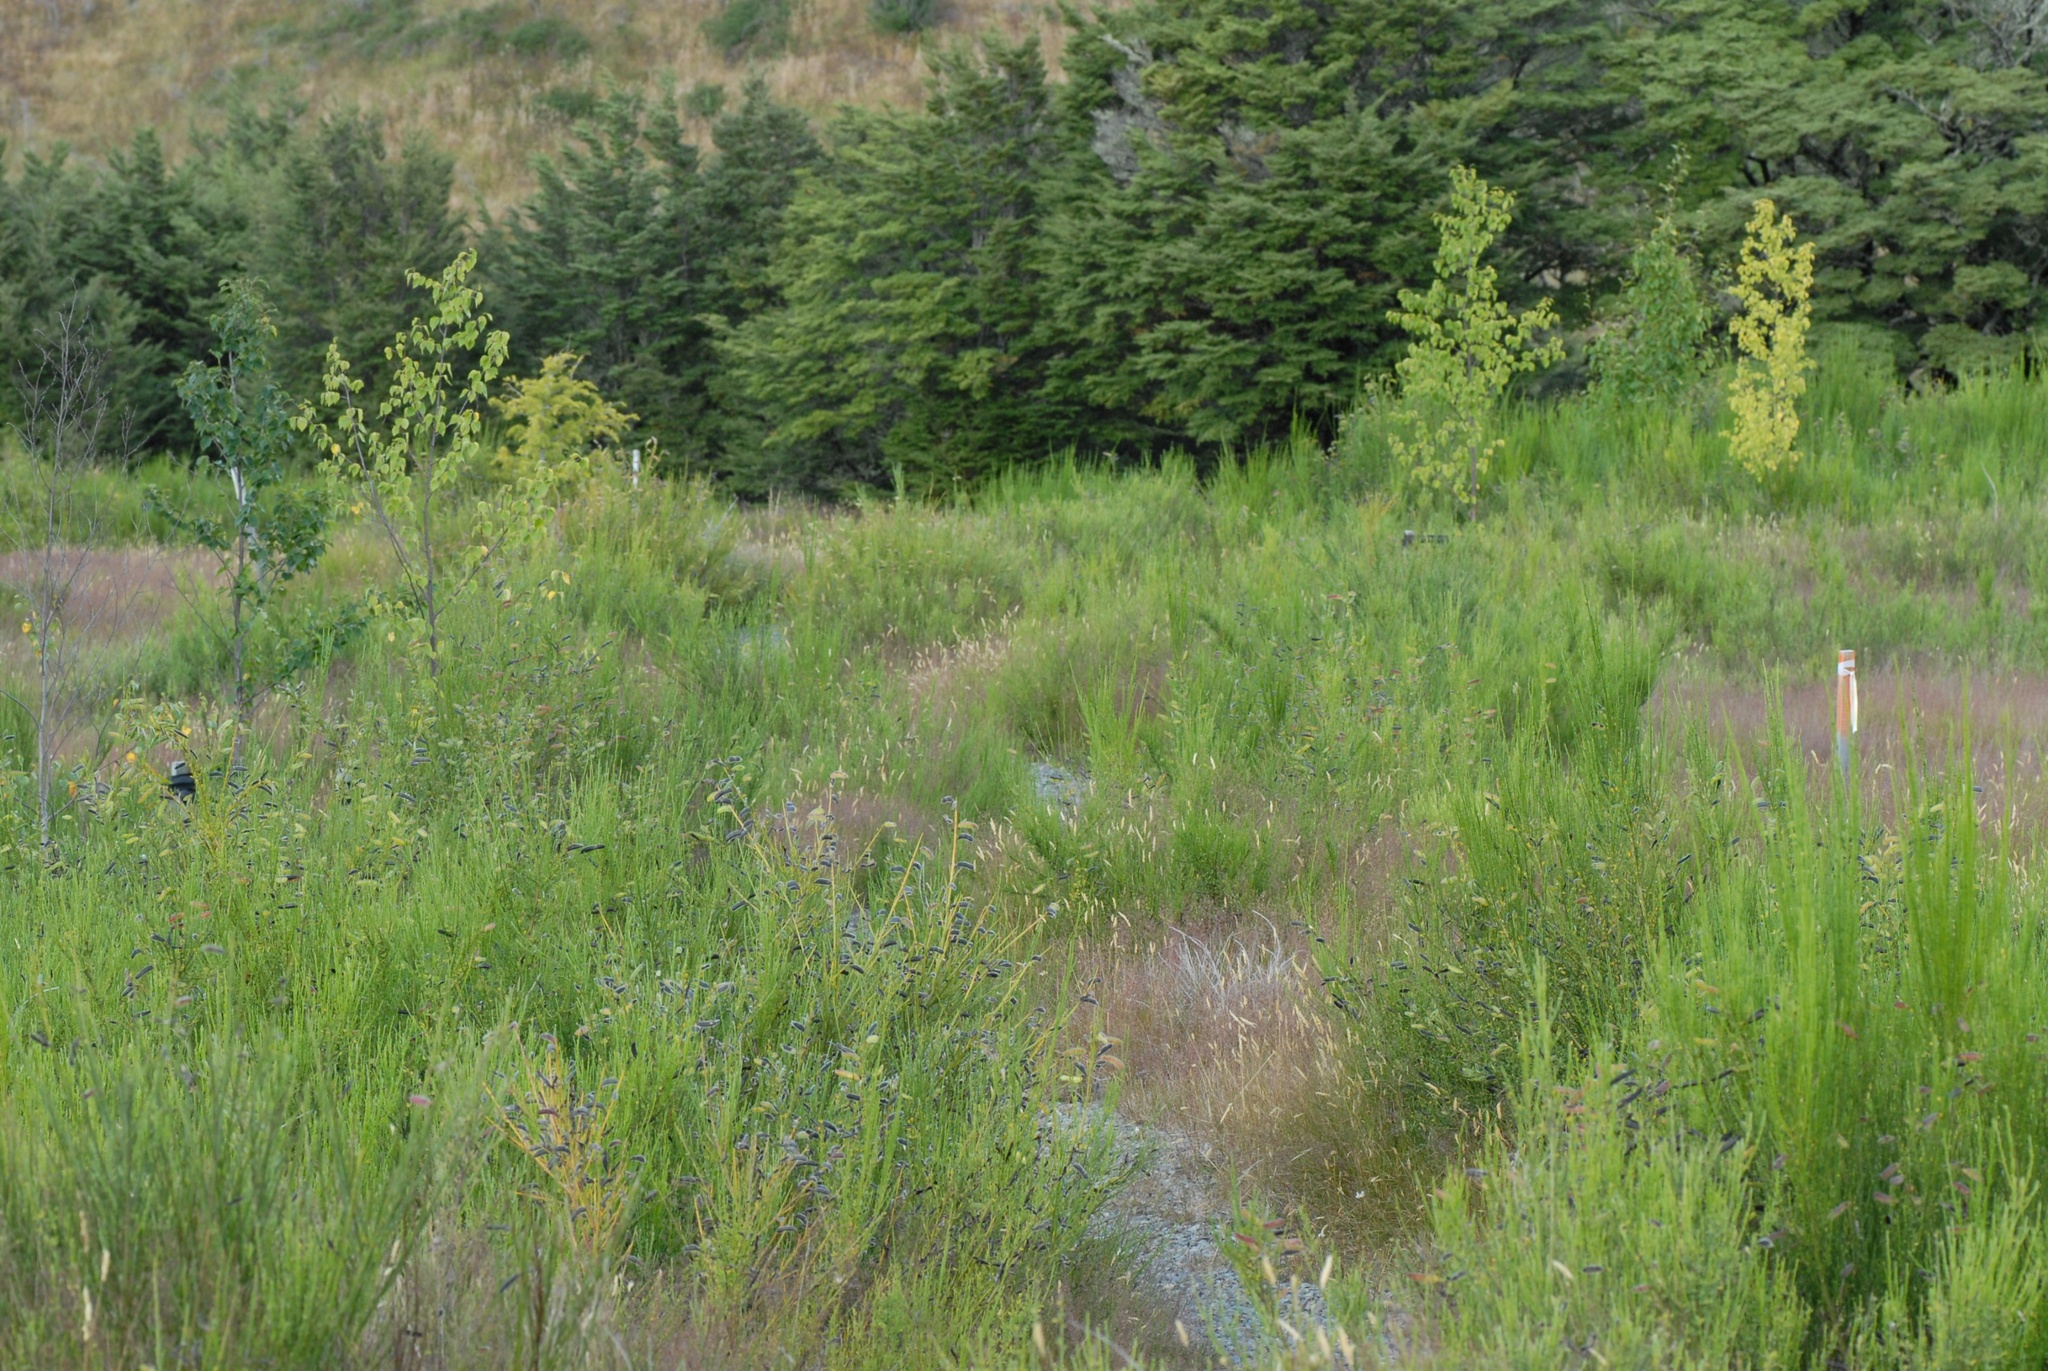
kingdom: Plantae
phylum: Tracheophyta
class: Magnoliopsida
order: Fabales
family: Fabaceae
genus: Cytisus
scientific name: Cytisus scoparius
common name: Scotch broom
